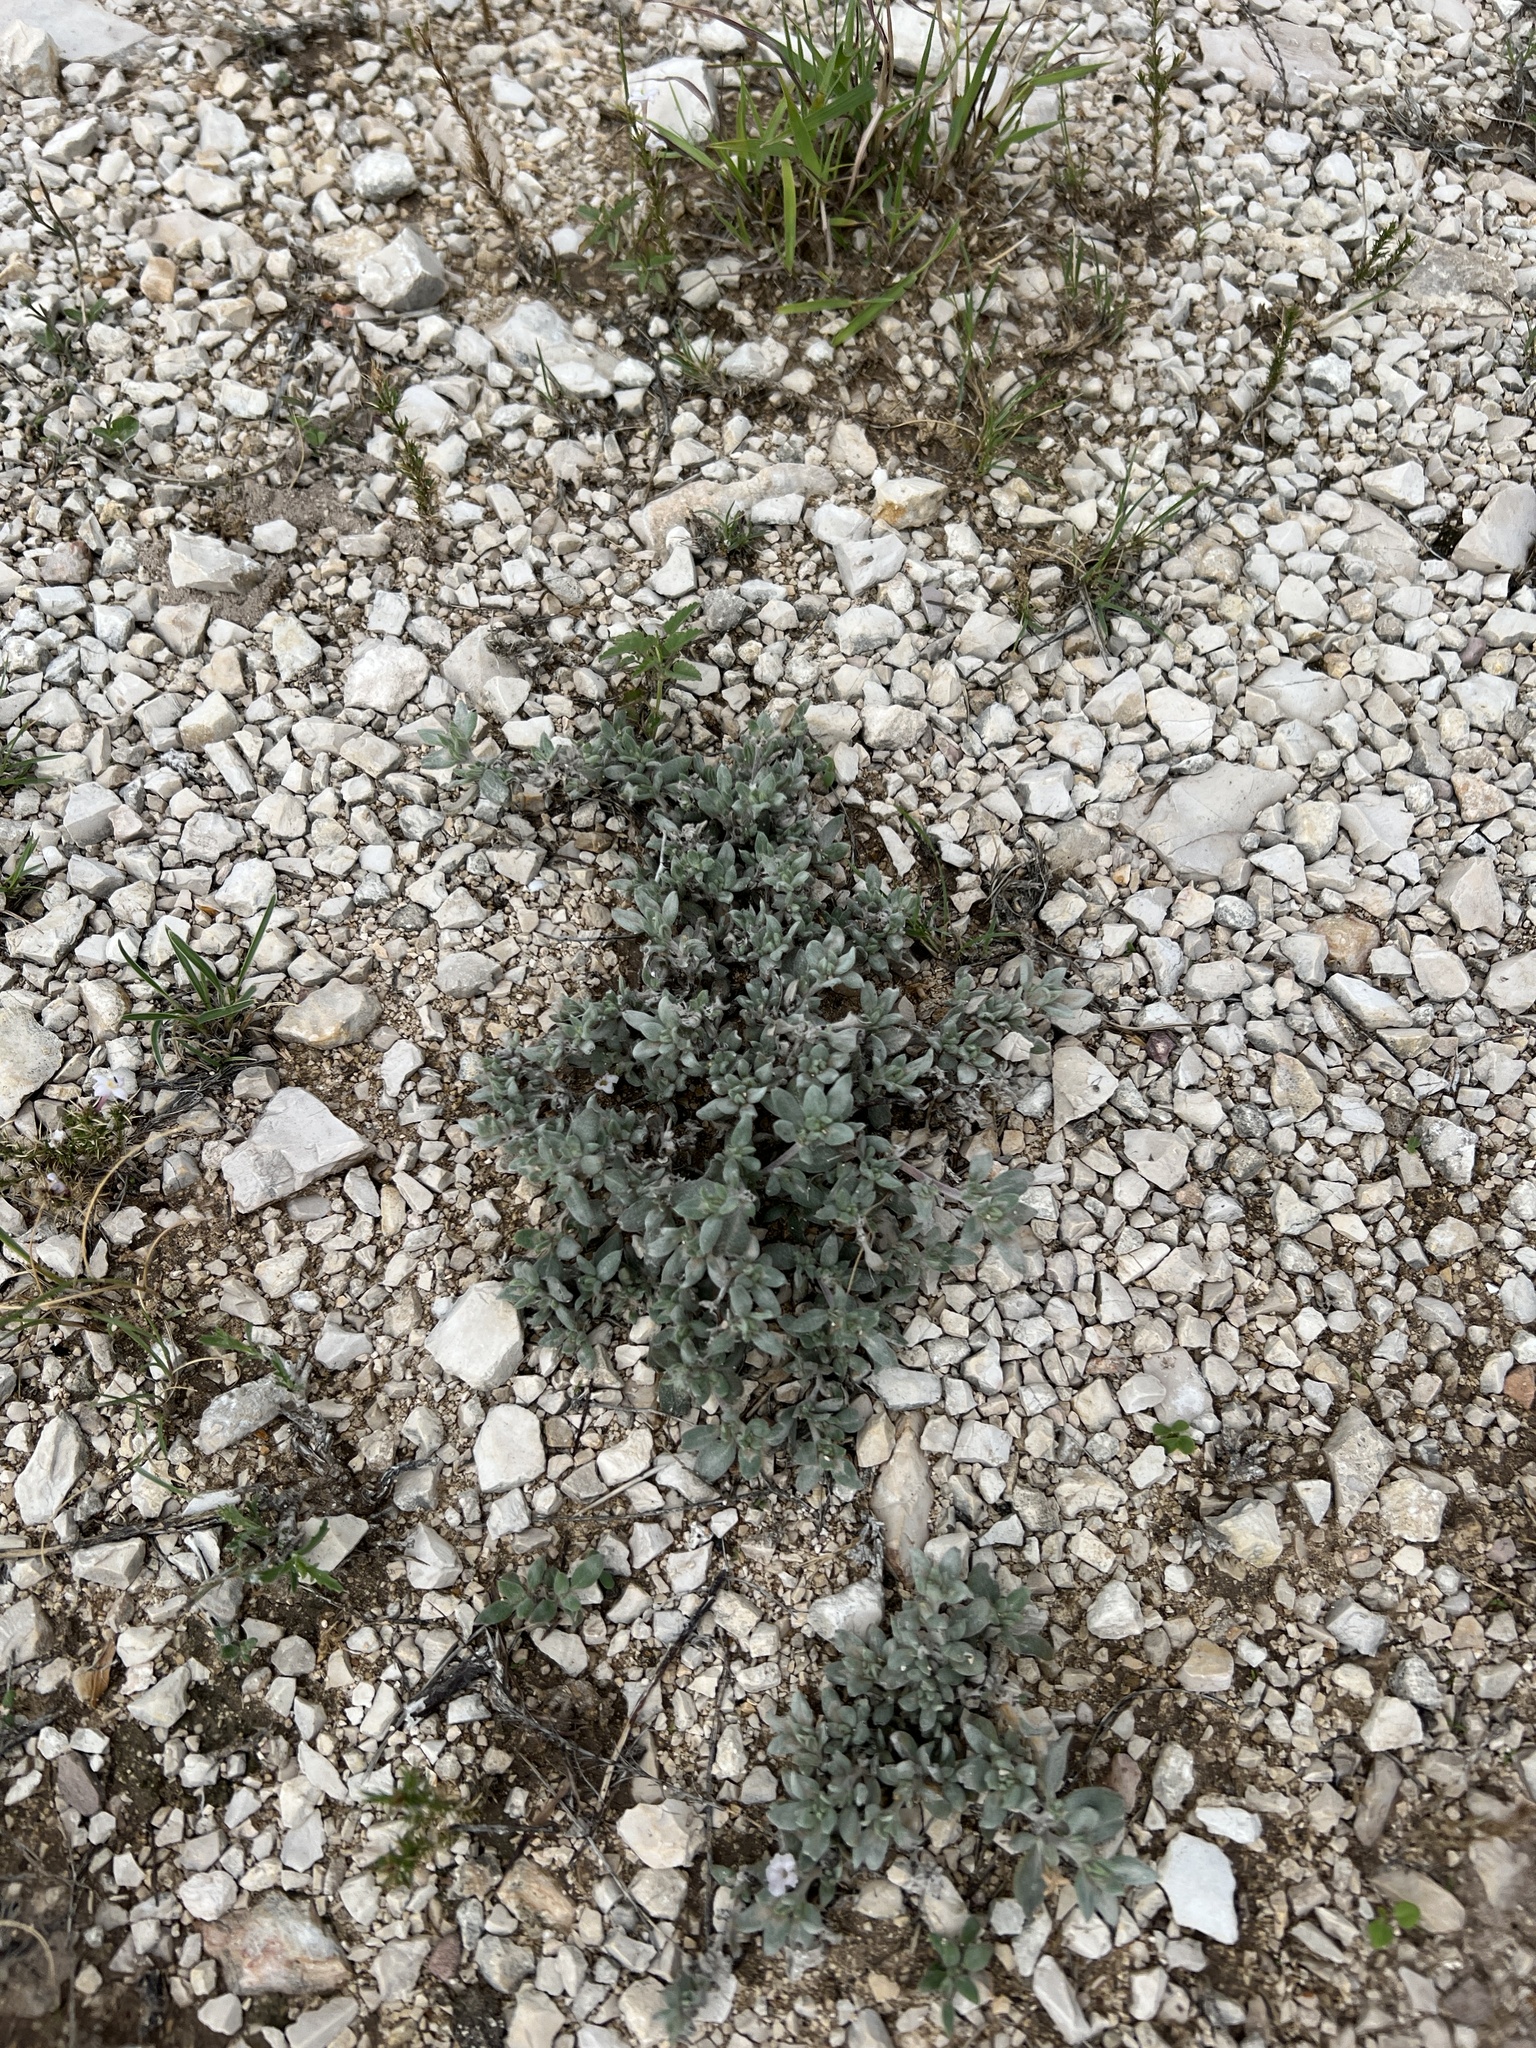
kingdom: Plantae
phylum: Tracheophyta
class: Magnoliopsida
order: Boraginales
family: Ehretiaceae
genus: Tiquilia
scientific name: Tiquilia canescens
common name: Hairy tiquilia
